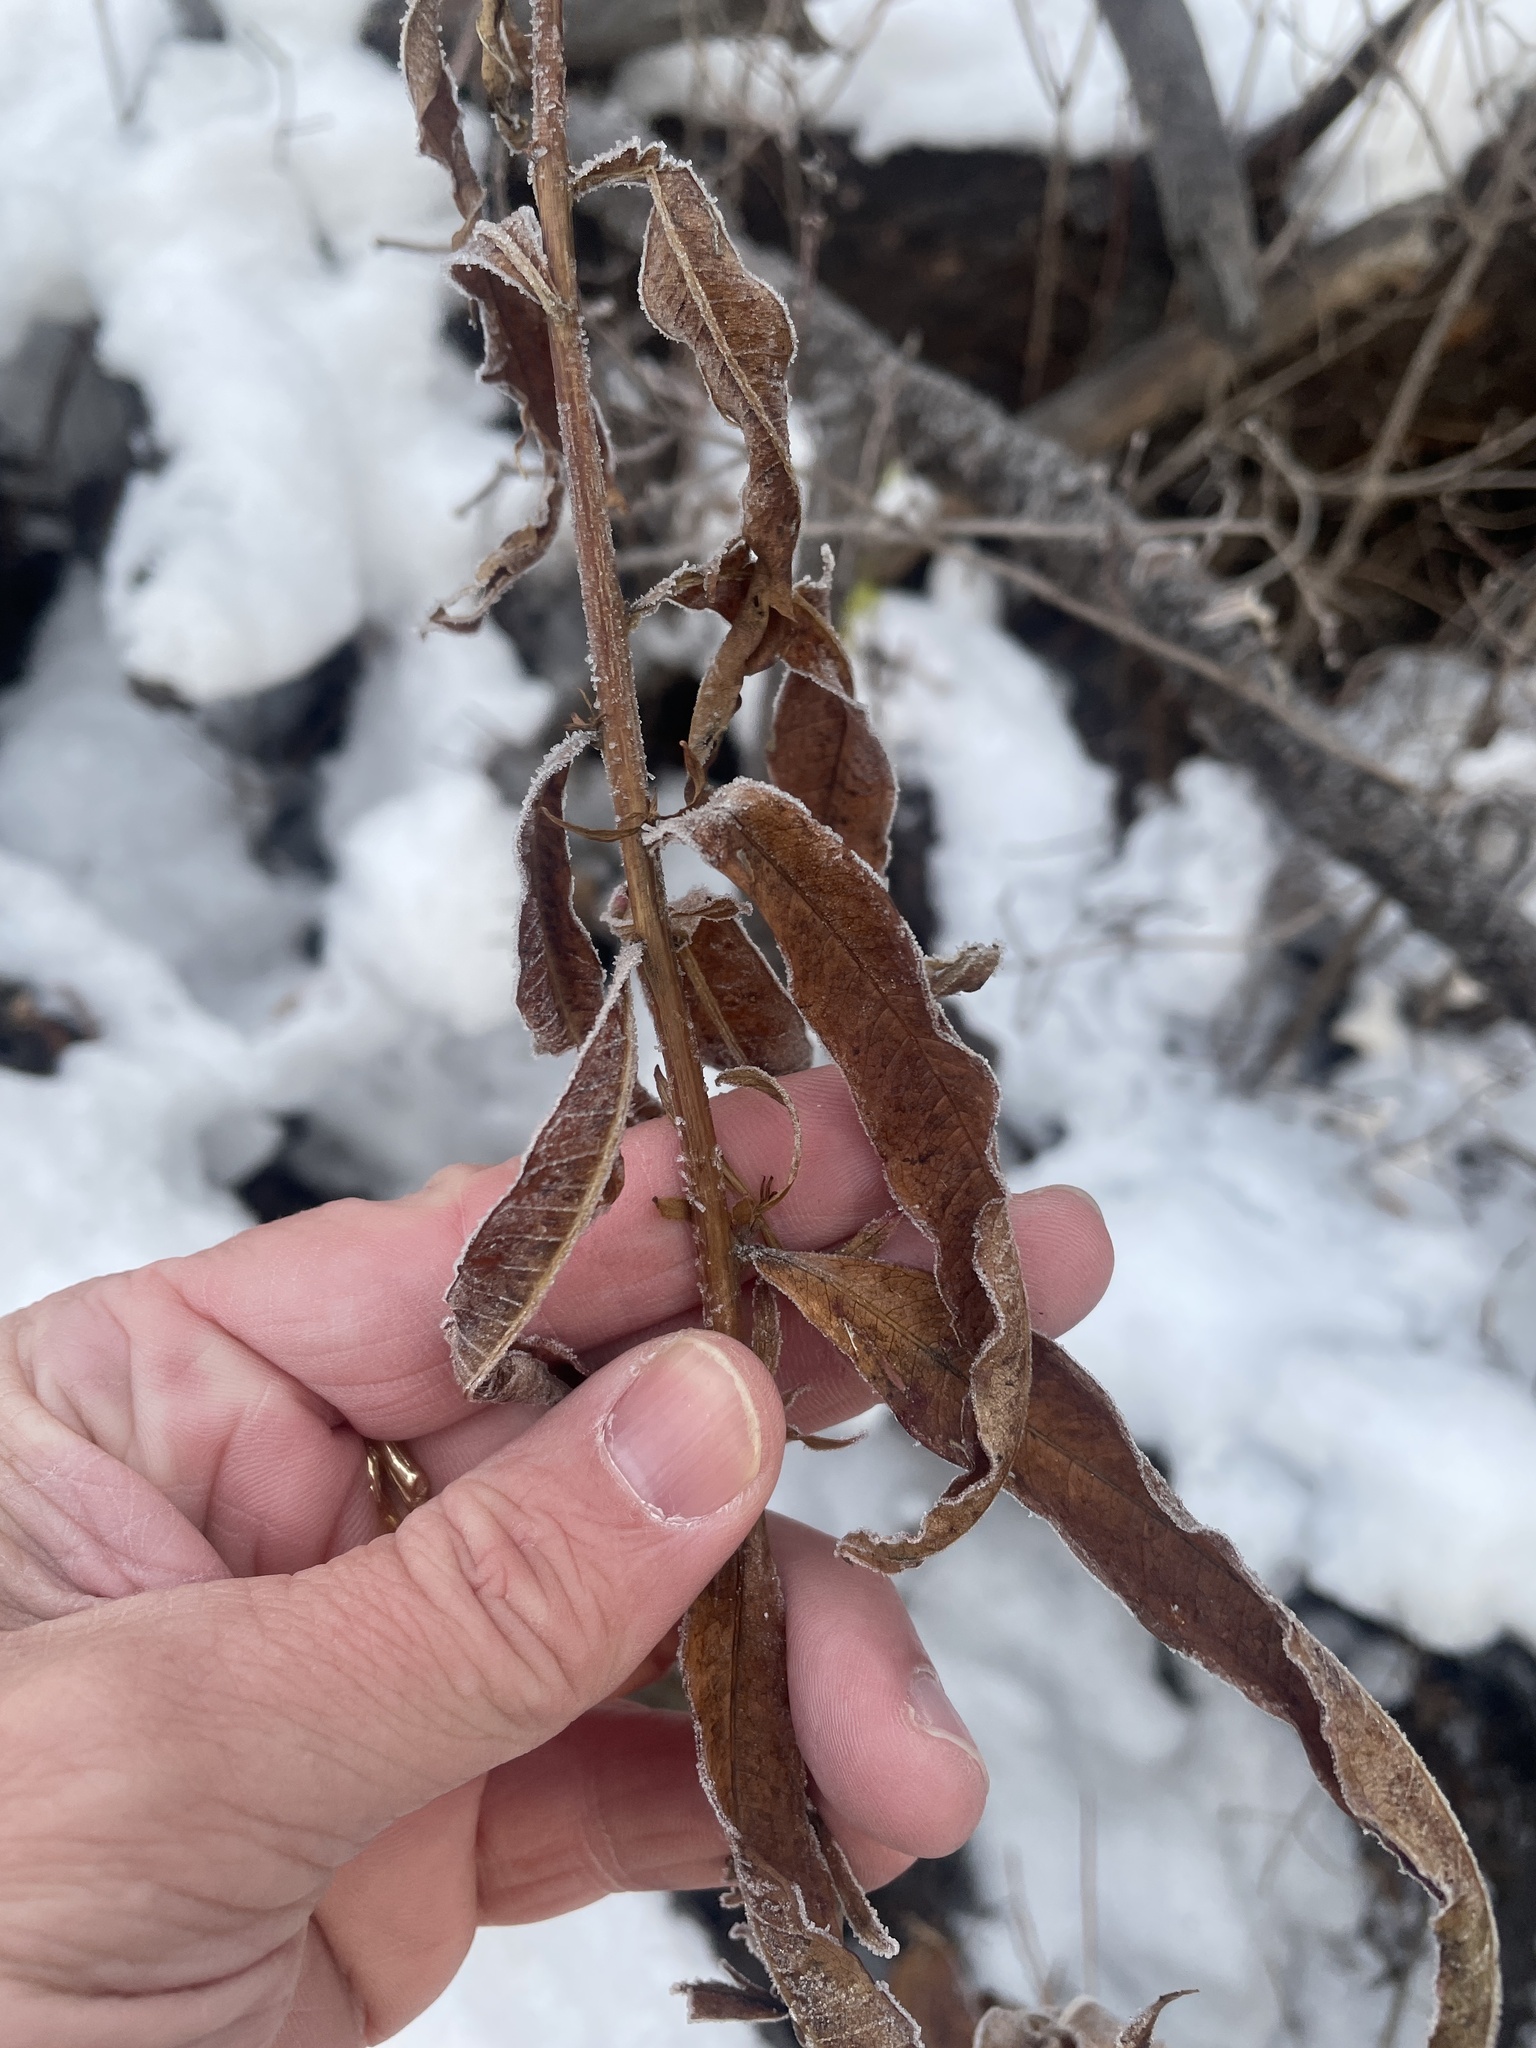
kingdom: Plantae
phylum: Tracheophyta
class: Magnoliopsida
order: Myrtales
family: Onagraceae
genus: Chamaenerion
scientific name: Chamaenerion angustifolium
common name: Fireweed
